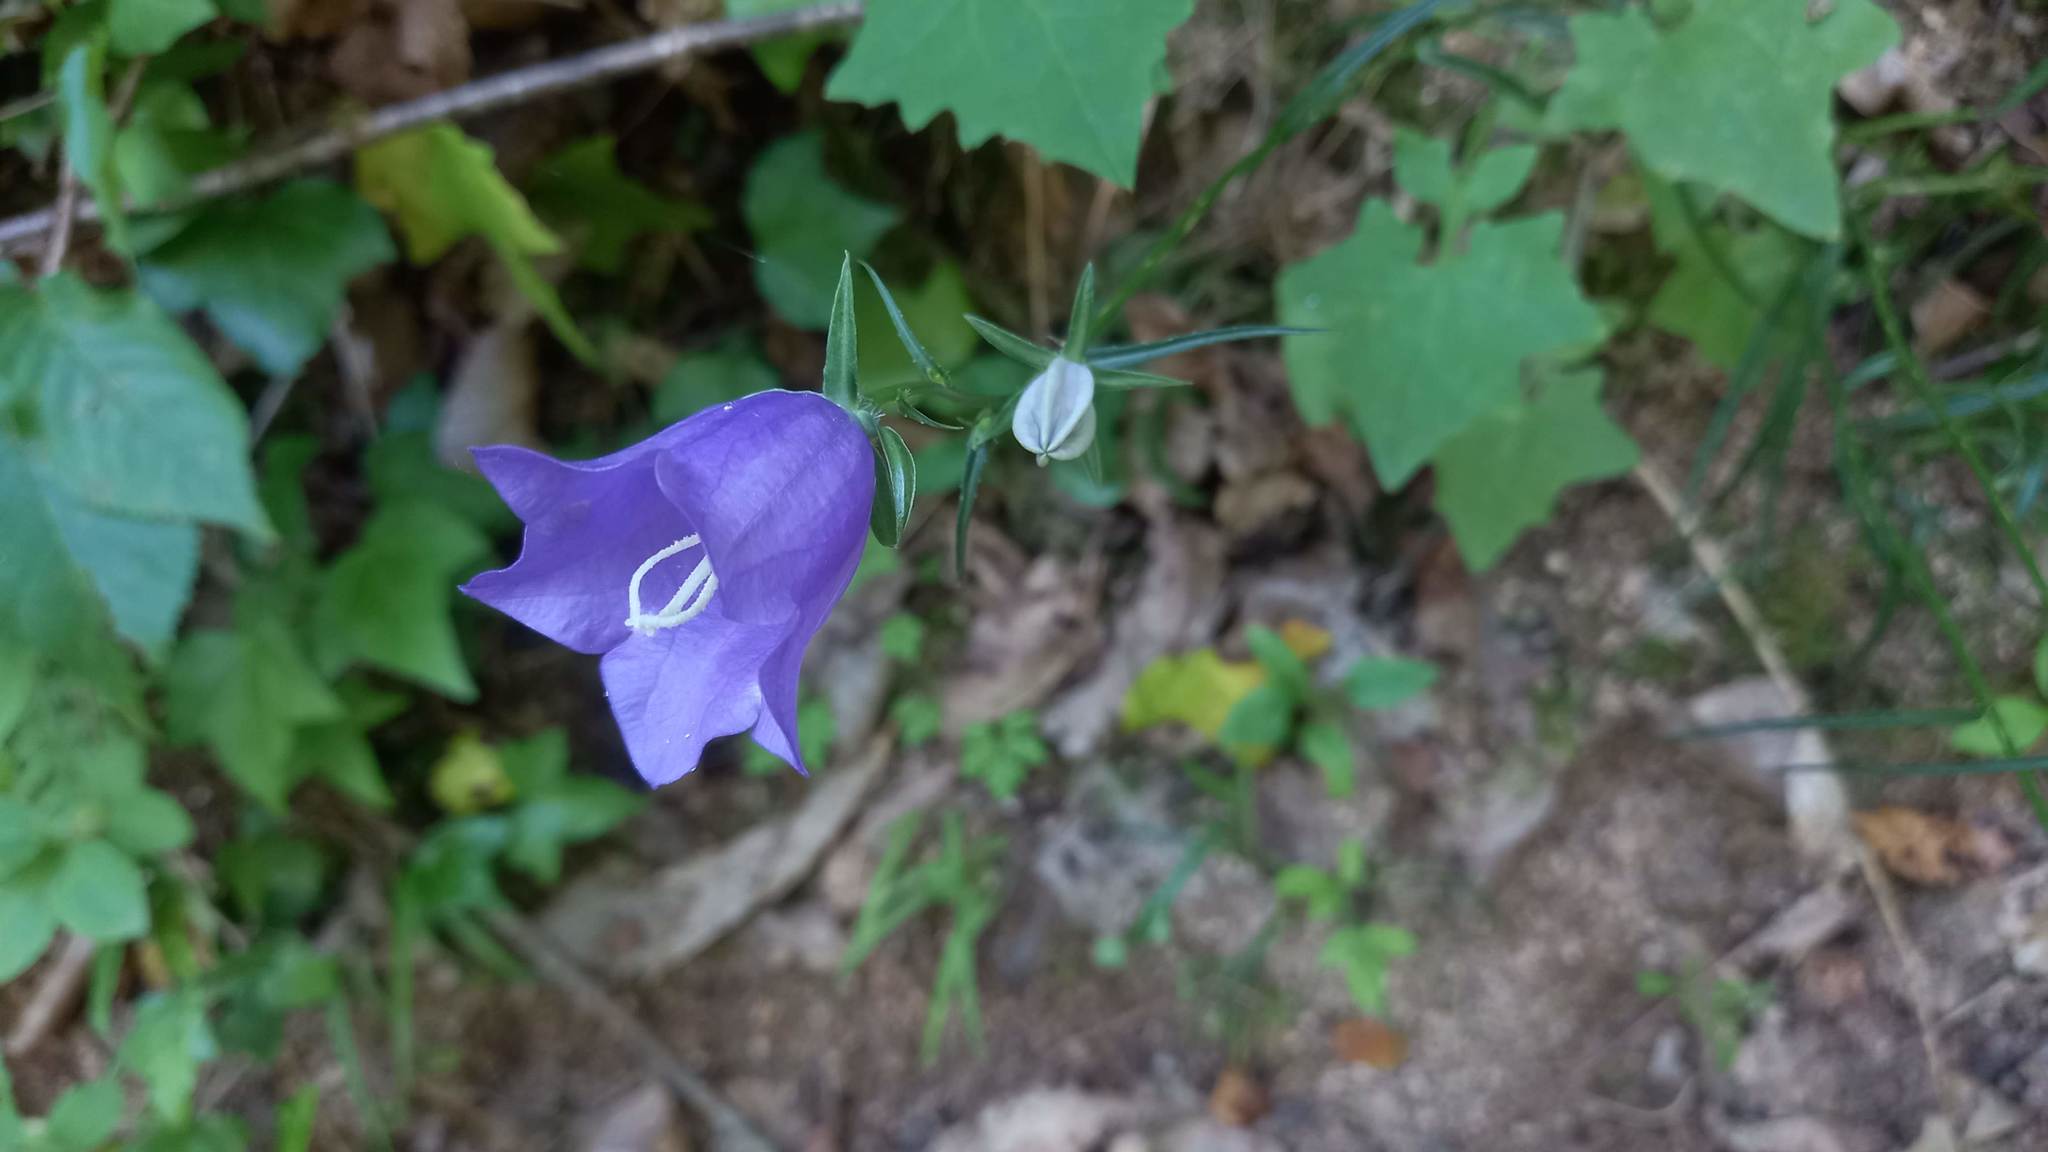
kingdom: Plantae
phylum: Tracheophyta
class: Magnoliopsida
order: Asterales
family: Campanulaceae
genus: Campanula
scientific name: Campanula persicifolia
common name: Peach-leaved bellflower
